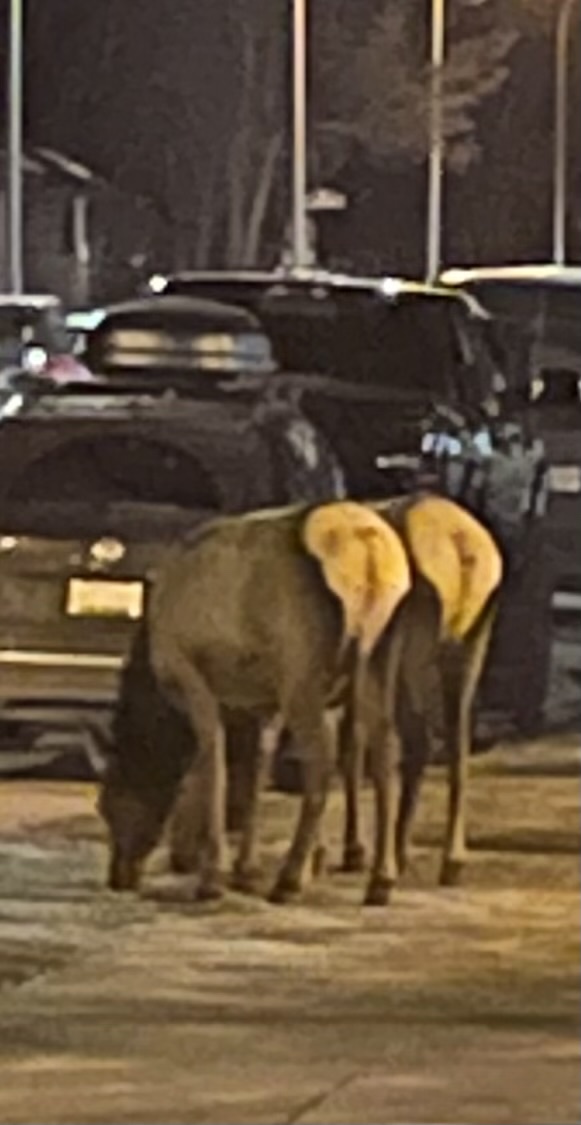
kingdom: Animalia
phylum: Chordata
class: Mammalia
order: Artiodactyla
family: Cervidae
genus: Cervus
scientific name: Cervus elaphus
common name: Red deer
